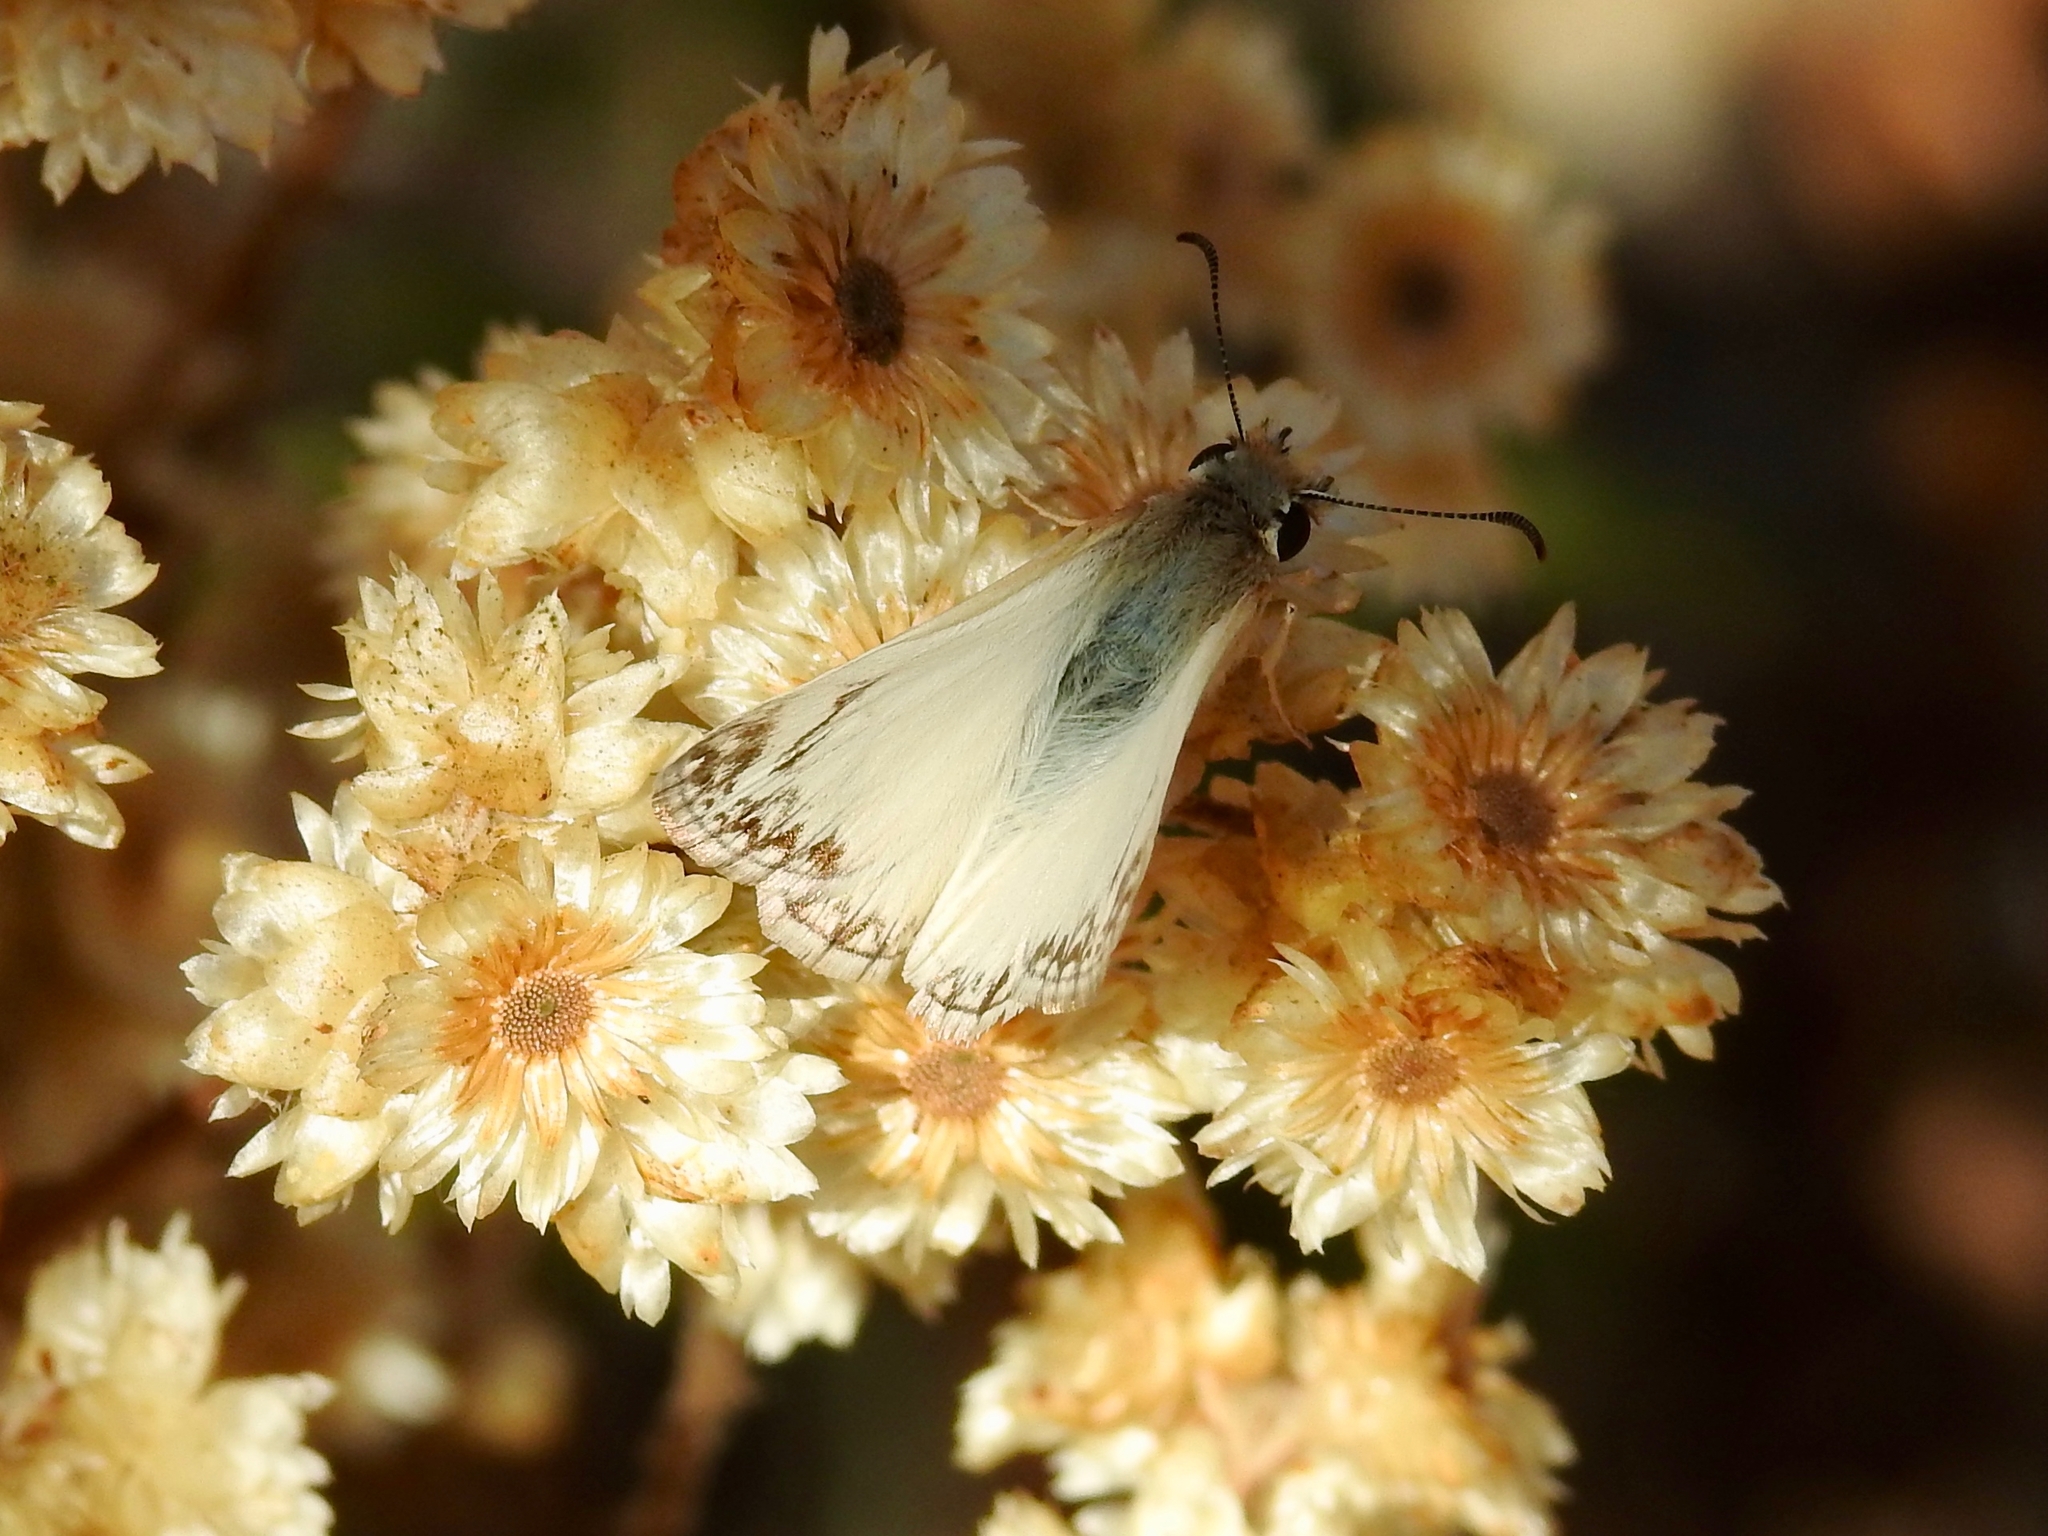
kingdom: Animalia
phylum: Arthropoda
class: Insecta
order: Lepidoptera
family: Hesperiidae
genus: Heliopetes
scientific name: Heliopetes ericetorum
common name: Northern white-skipper
